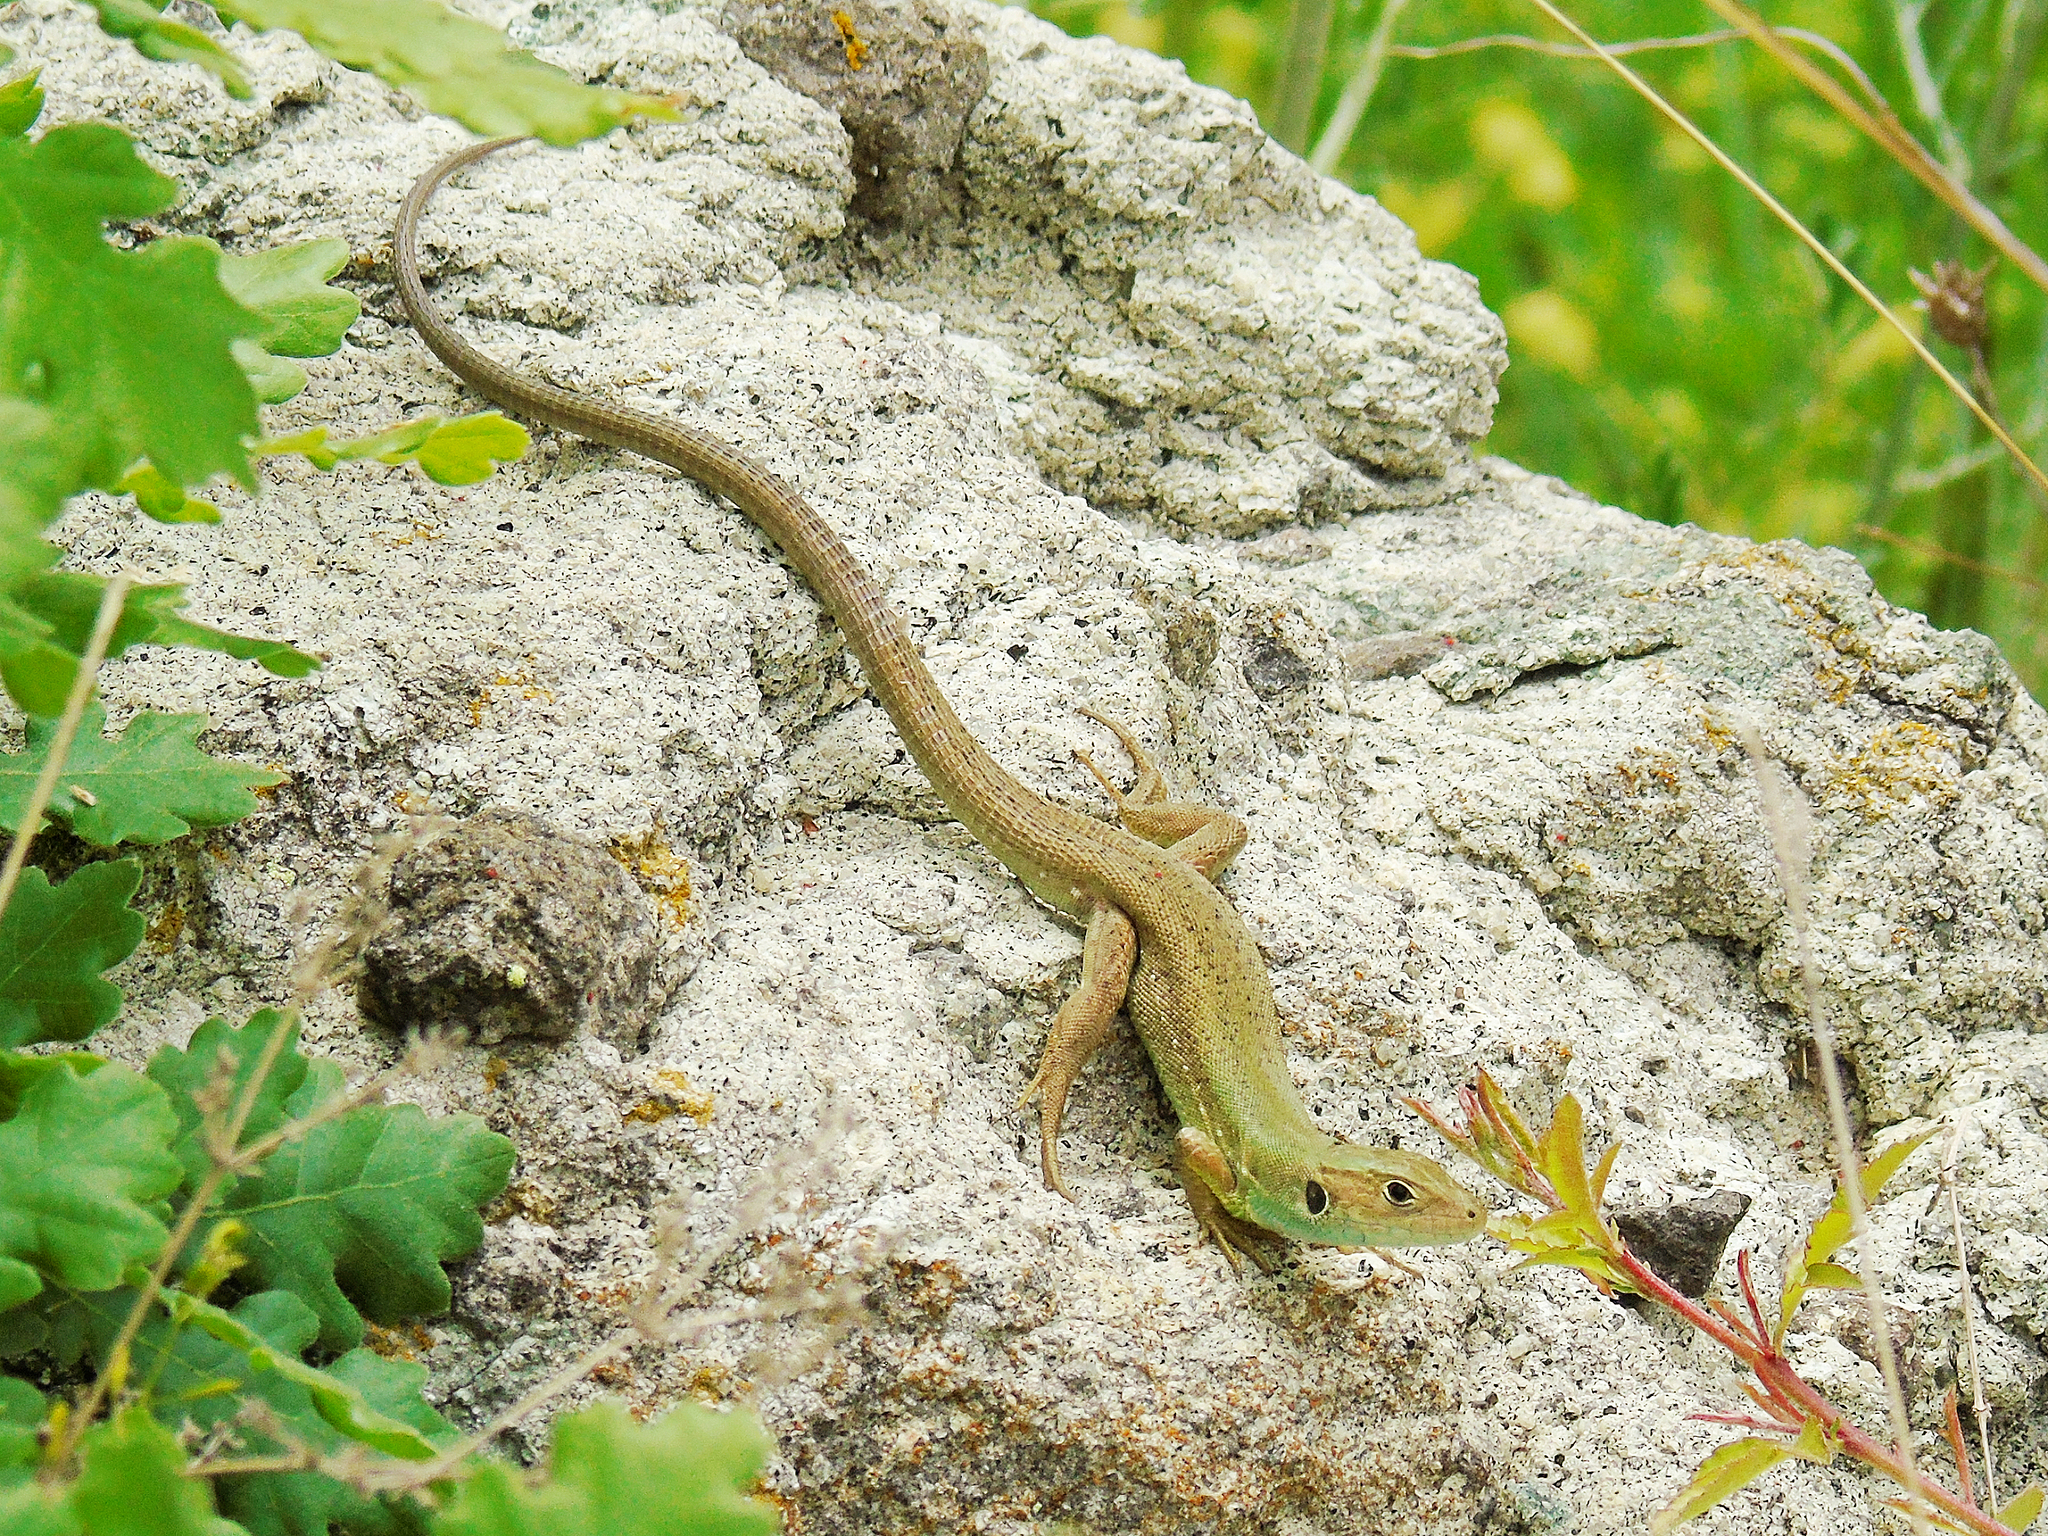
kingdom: Animalia
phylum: Chordata
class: Squamata
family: Lacertidae
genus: Lacerta
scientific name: Lacerta viridis
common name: European green lizard
